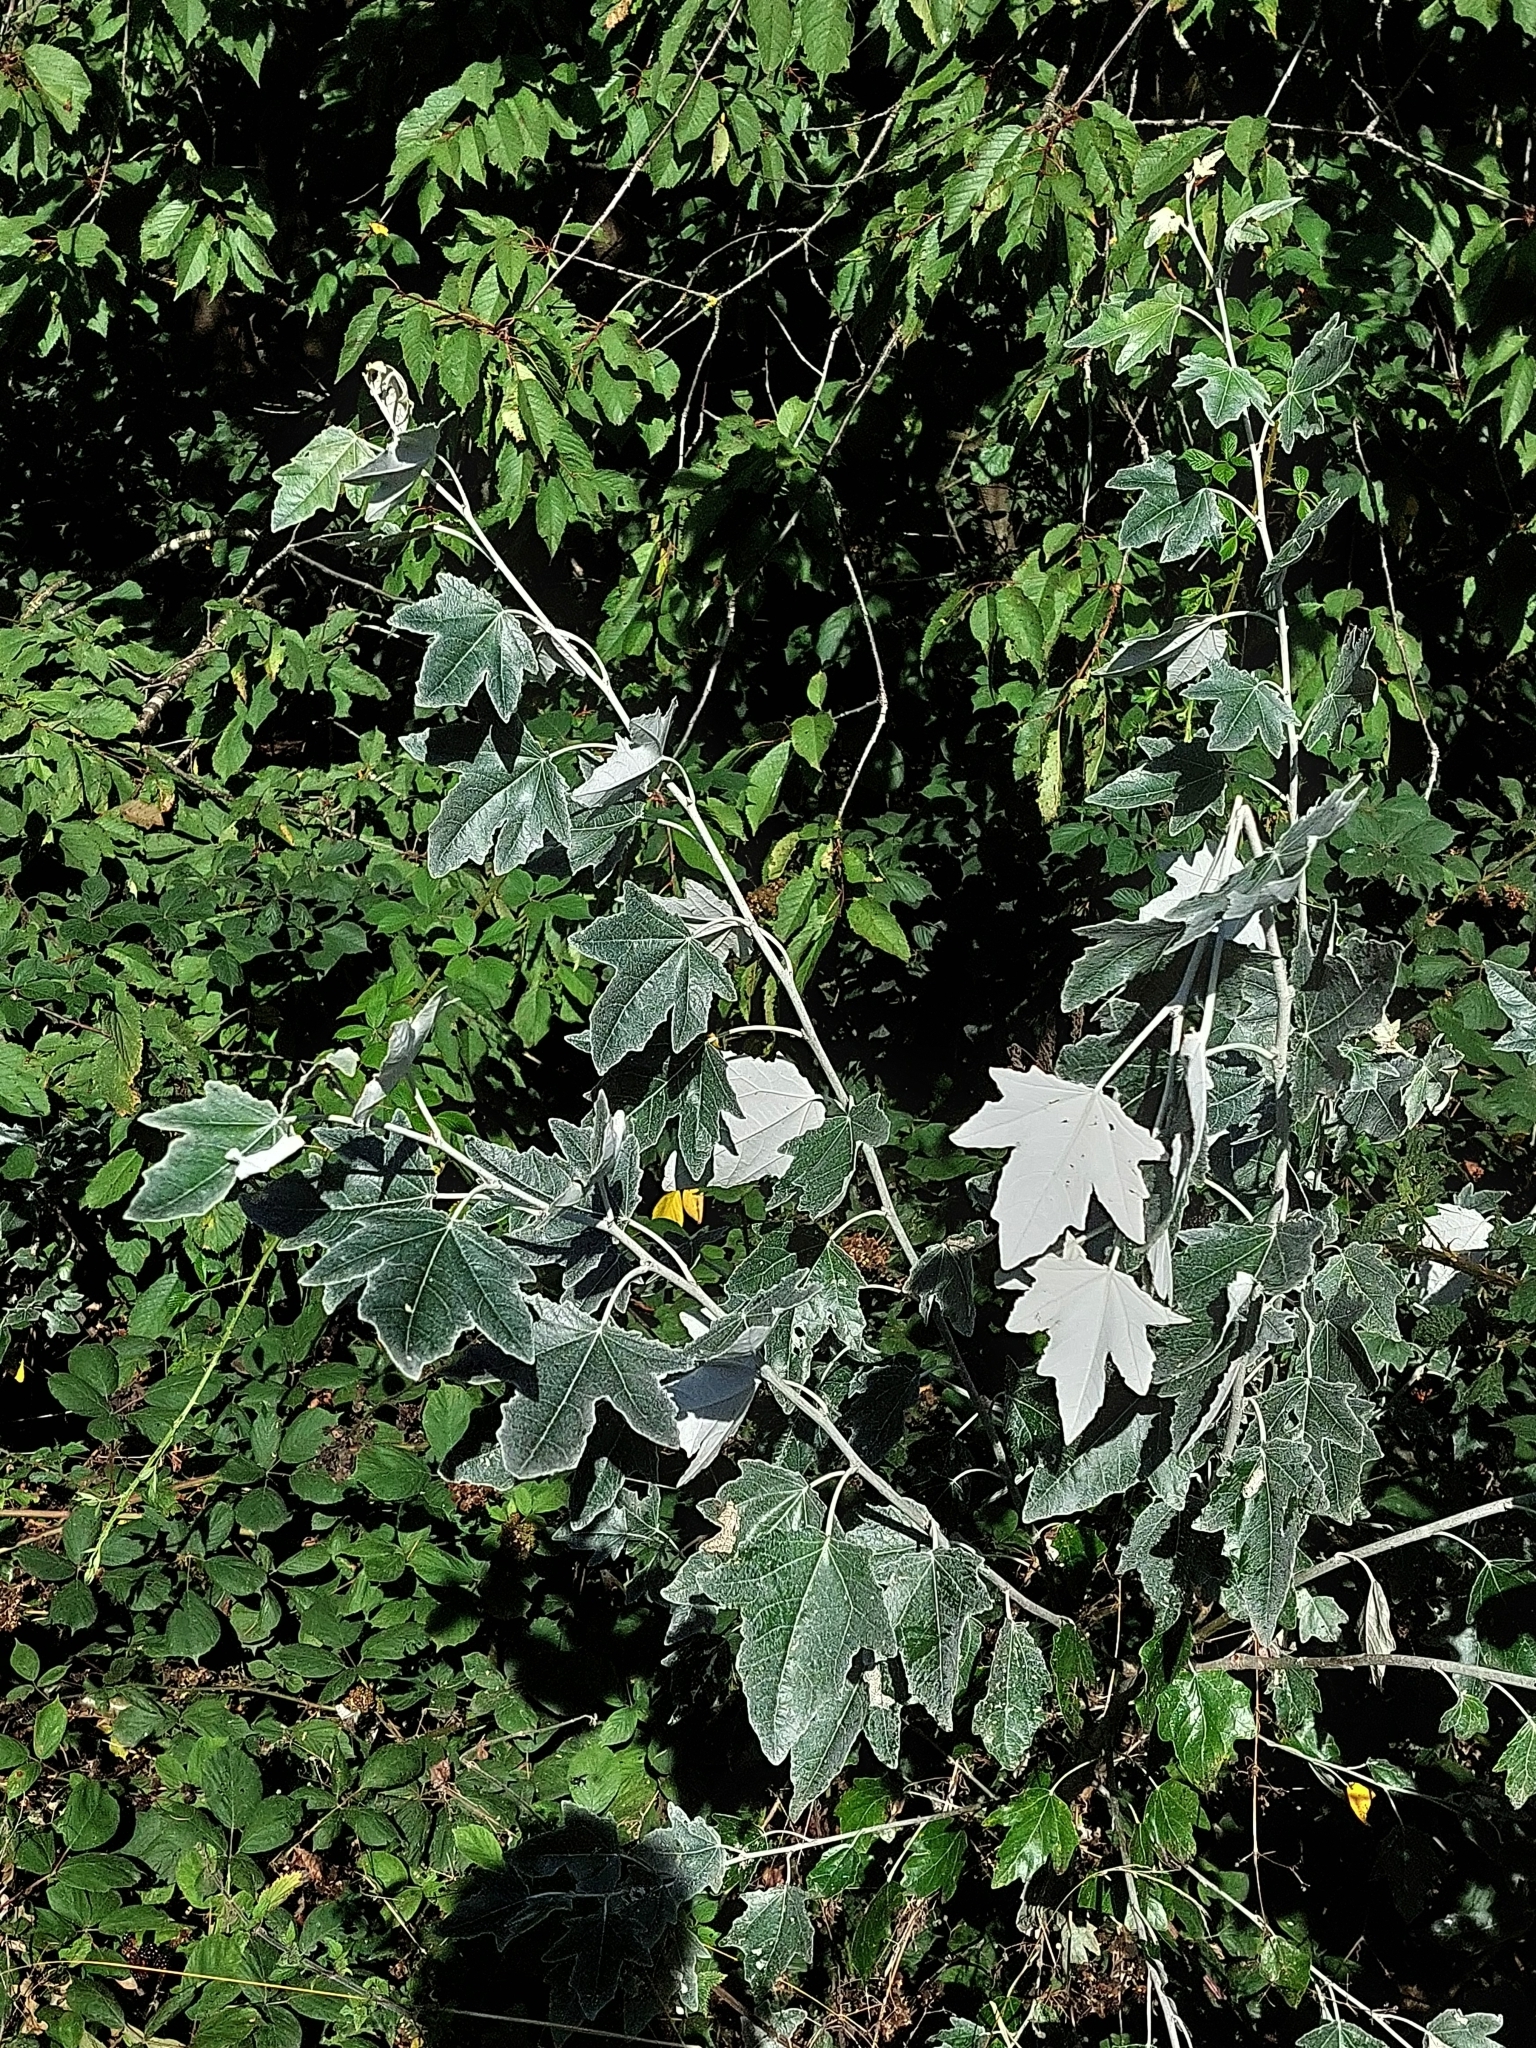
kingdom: Plantae
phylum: Tracheophyta
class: Magnoliopsida
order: Malpighiales
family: Salicaceae
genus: Populus
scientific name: Populus alba
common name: White poplar
